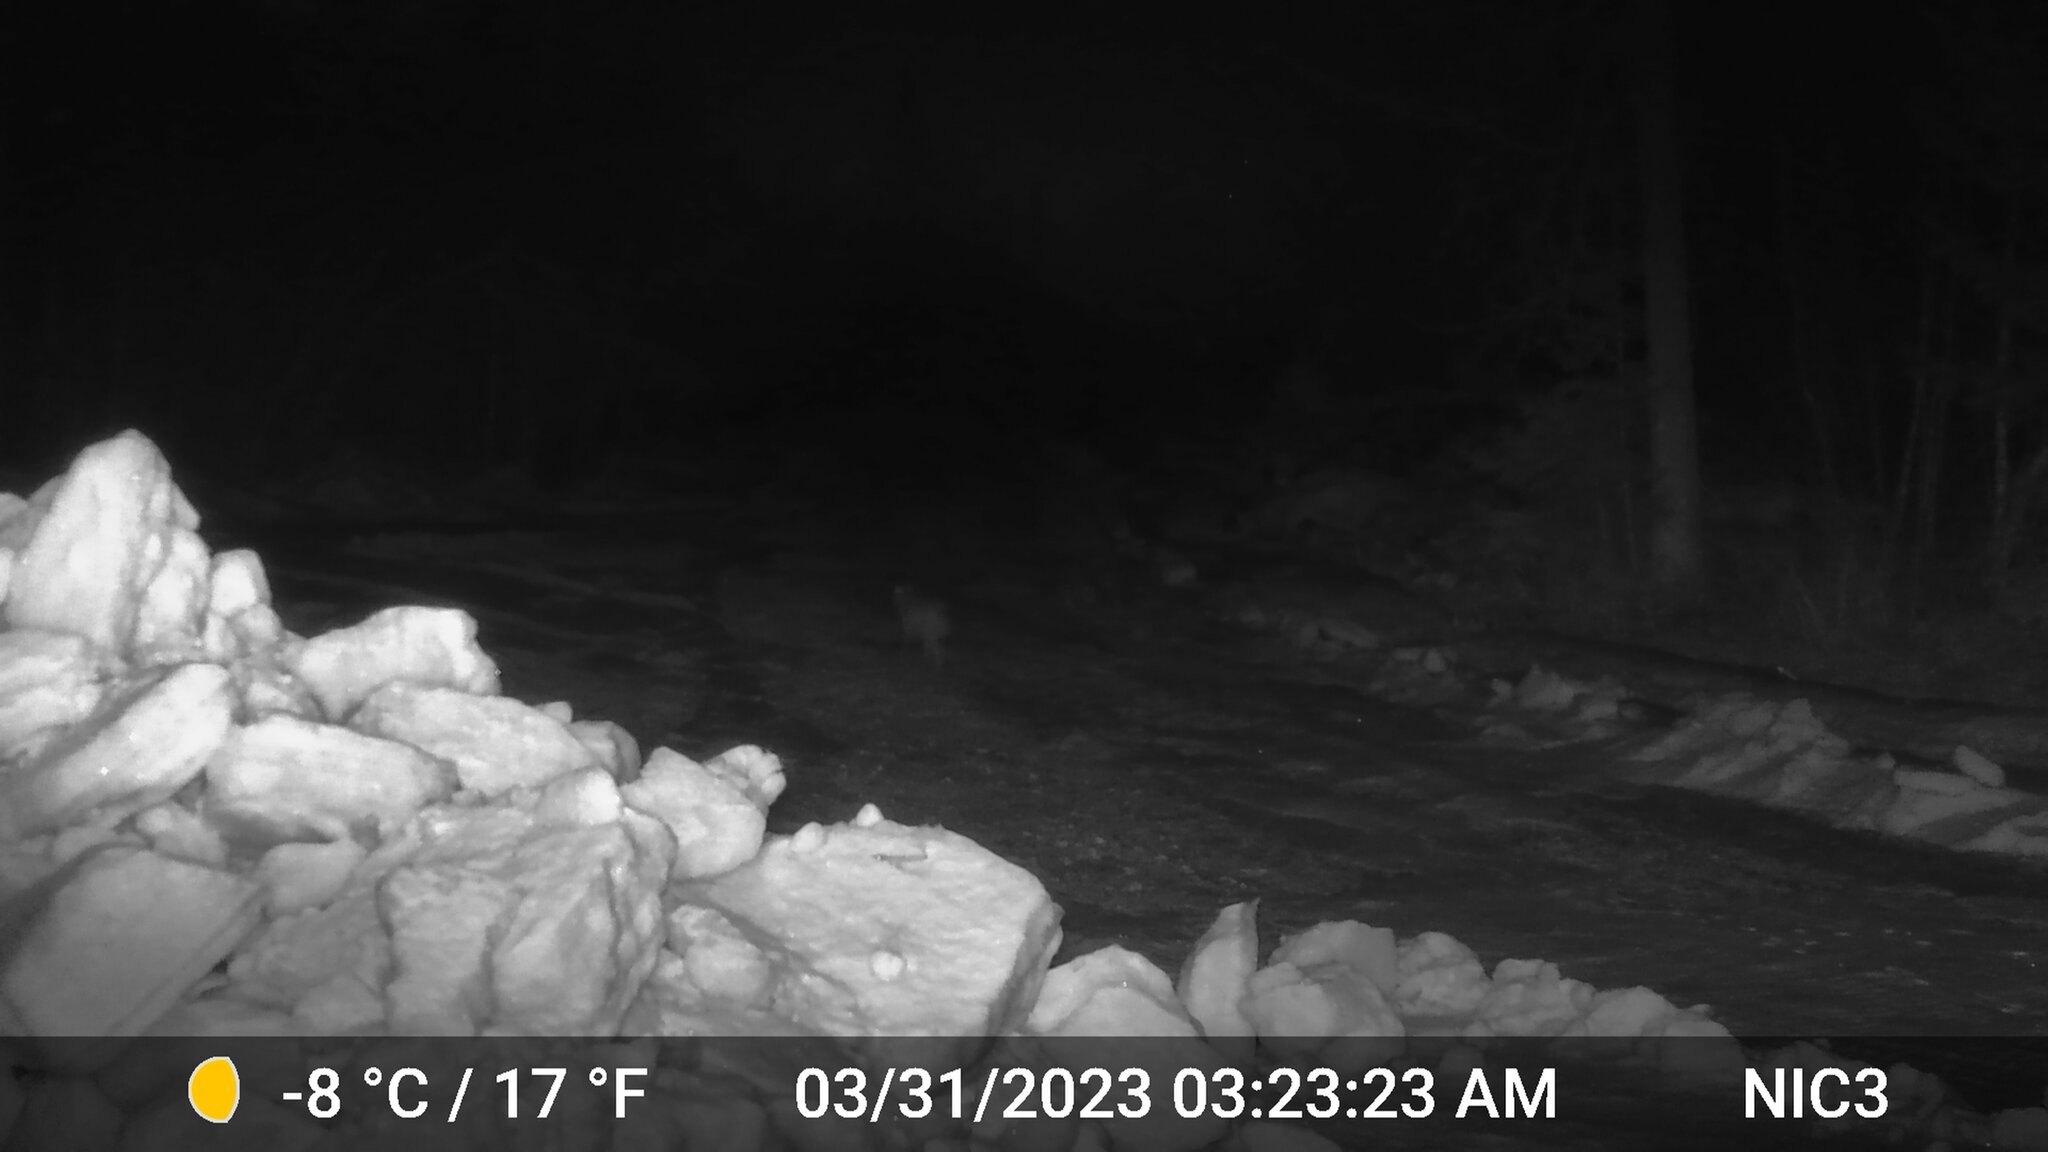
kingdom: Animalia
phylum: Chordata
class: Mammalia
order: Carnivora
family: Canidae
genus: Canis
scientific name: Canis latrans
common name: Coyote
